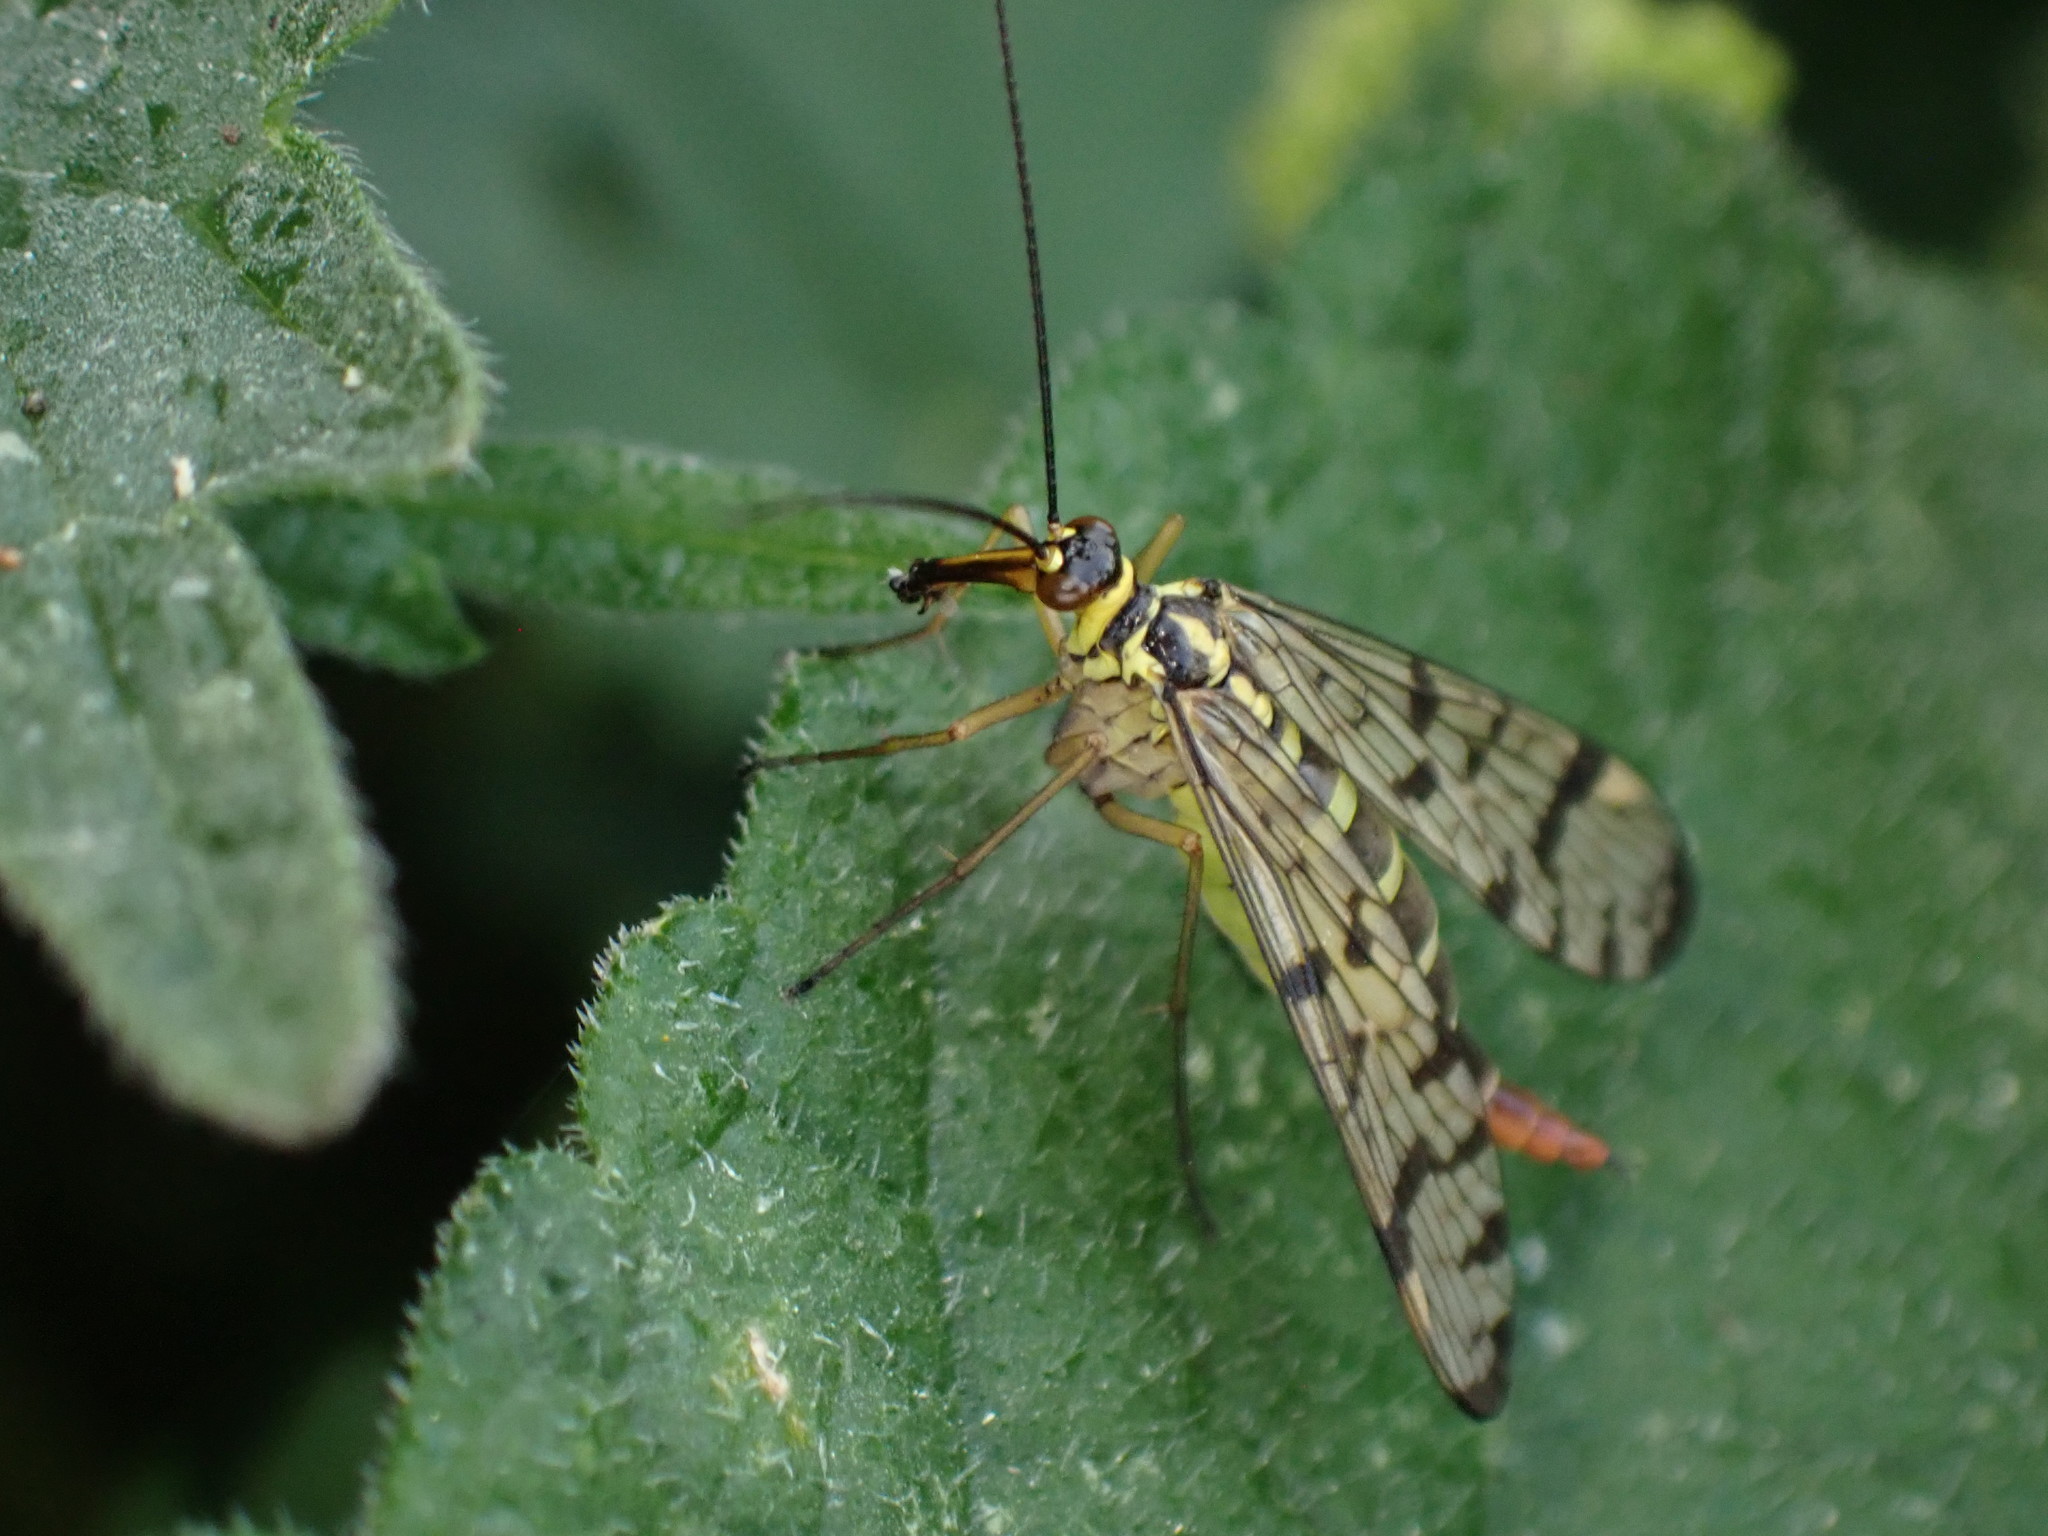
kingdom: Animalia
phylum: Arthropoda
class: Insecta
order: Mecoptera
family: Panorpidae
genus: Panorpa
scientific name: Panorpa
